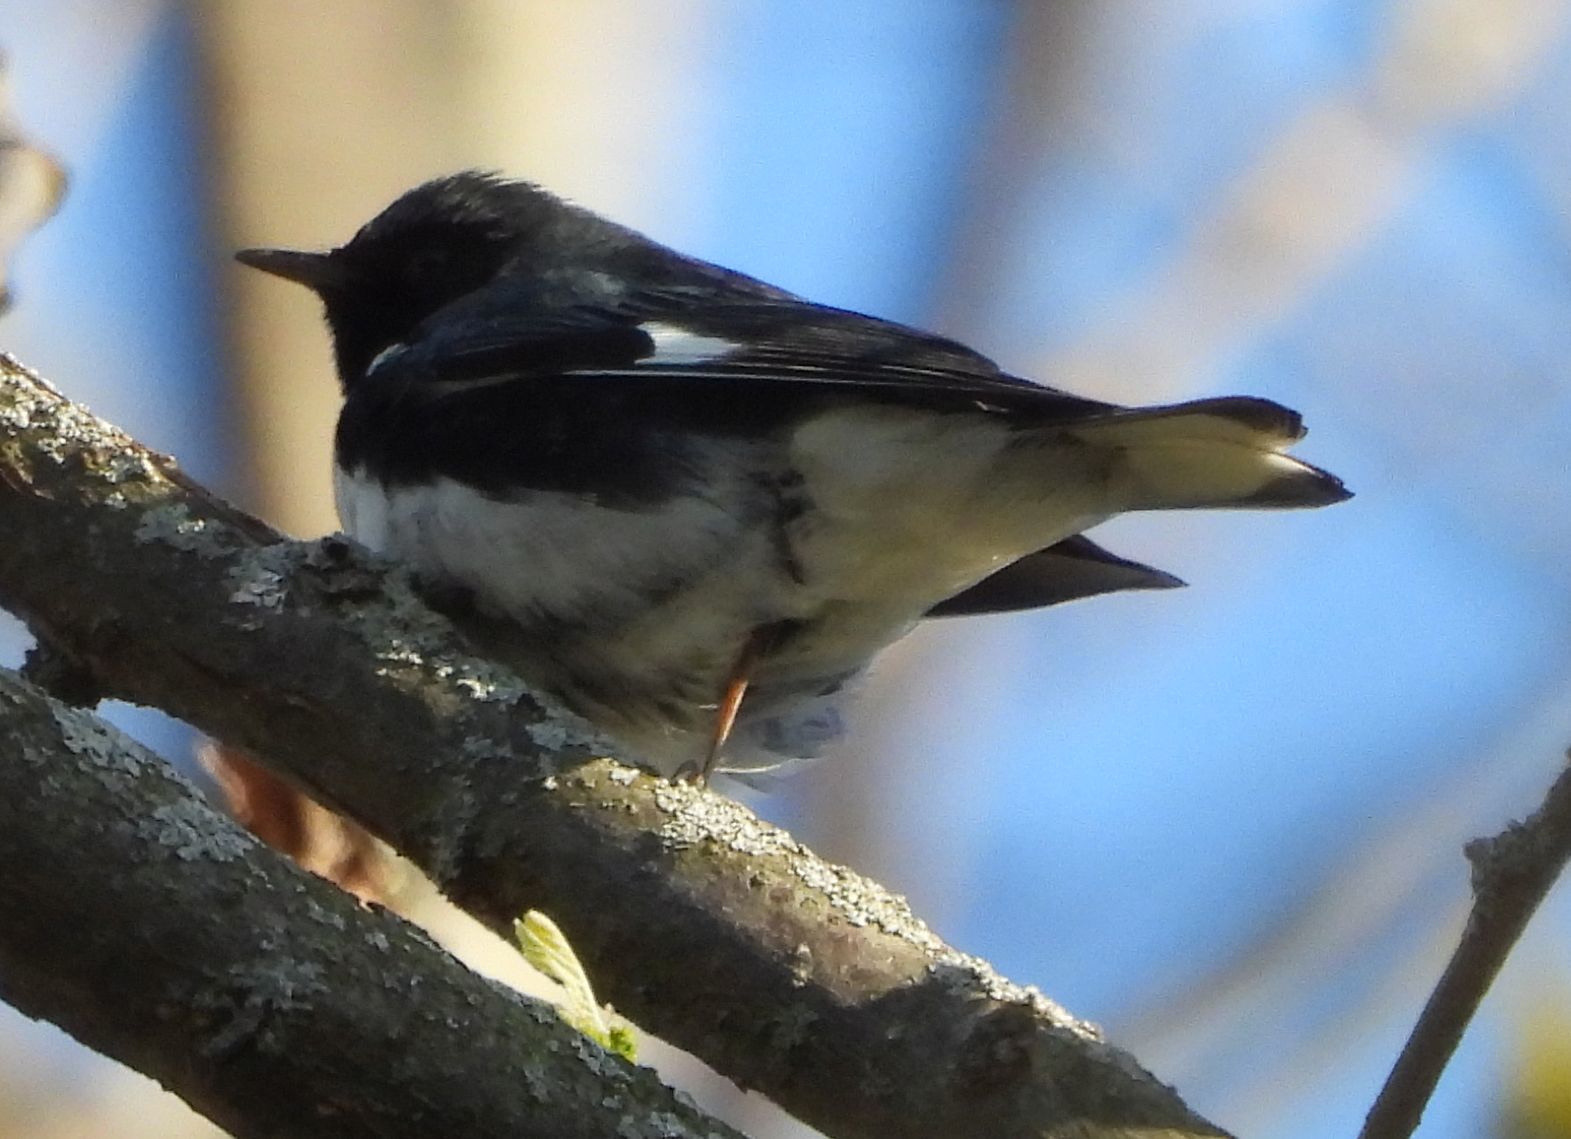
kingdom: Animalia
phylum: Chordata
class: Aves
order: Passeriformes
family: Parulidae
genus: Setophaga
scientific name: Setophaga caerulescens
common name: Black-throated blue warbler
